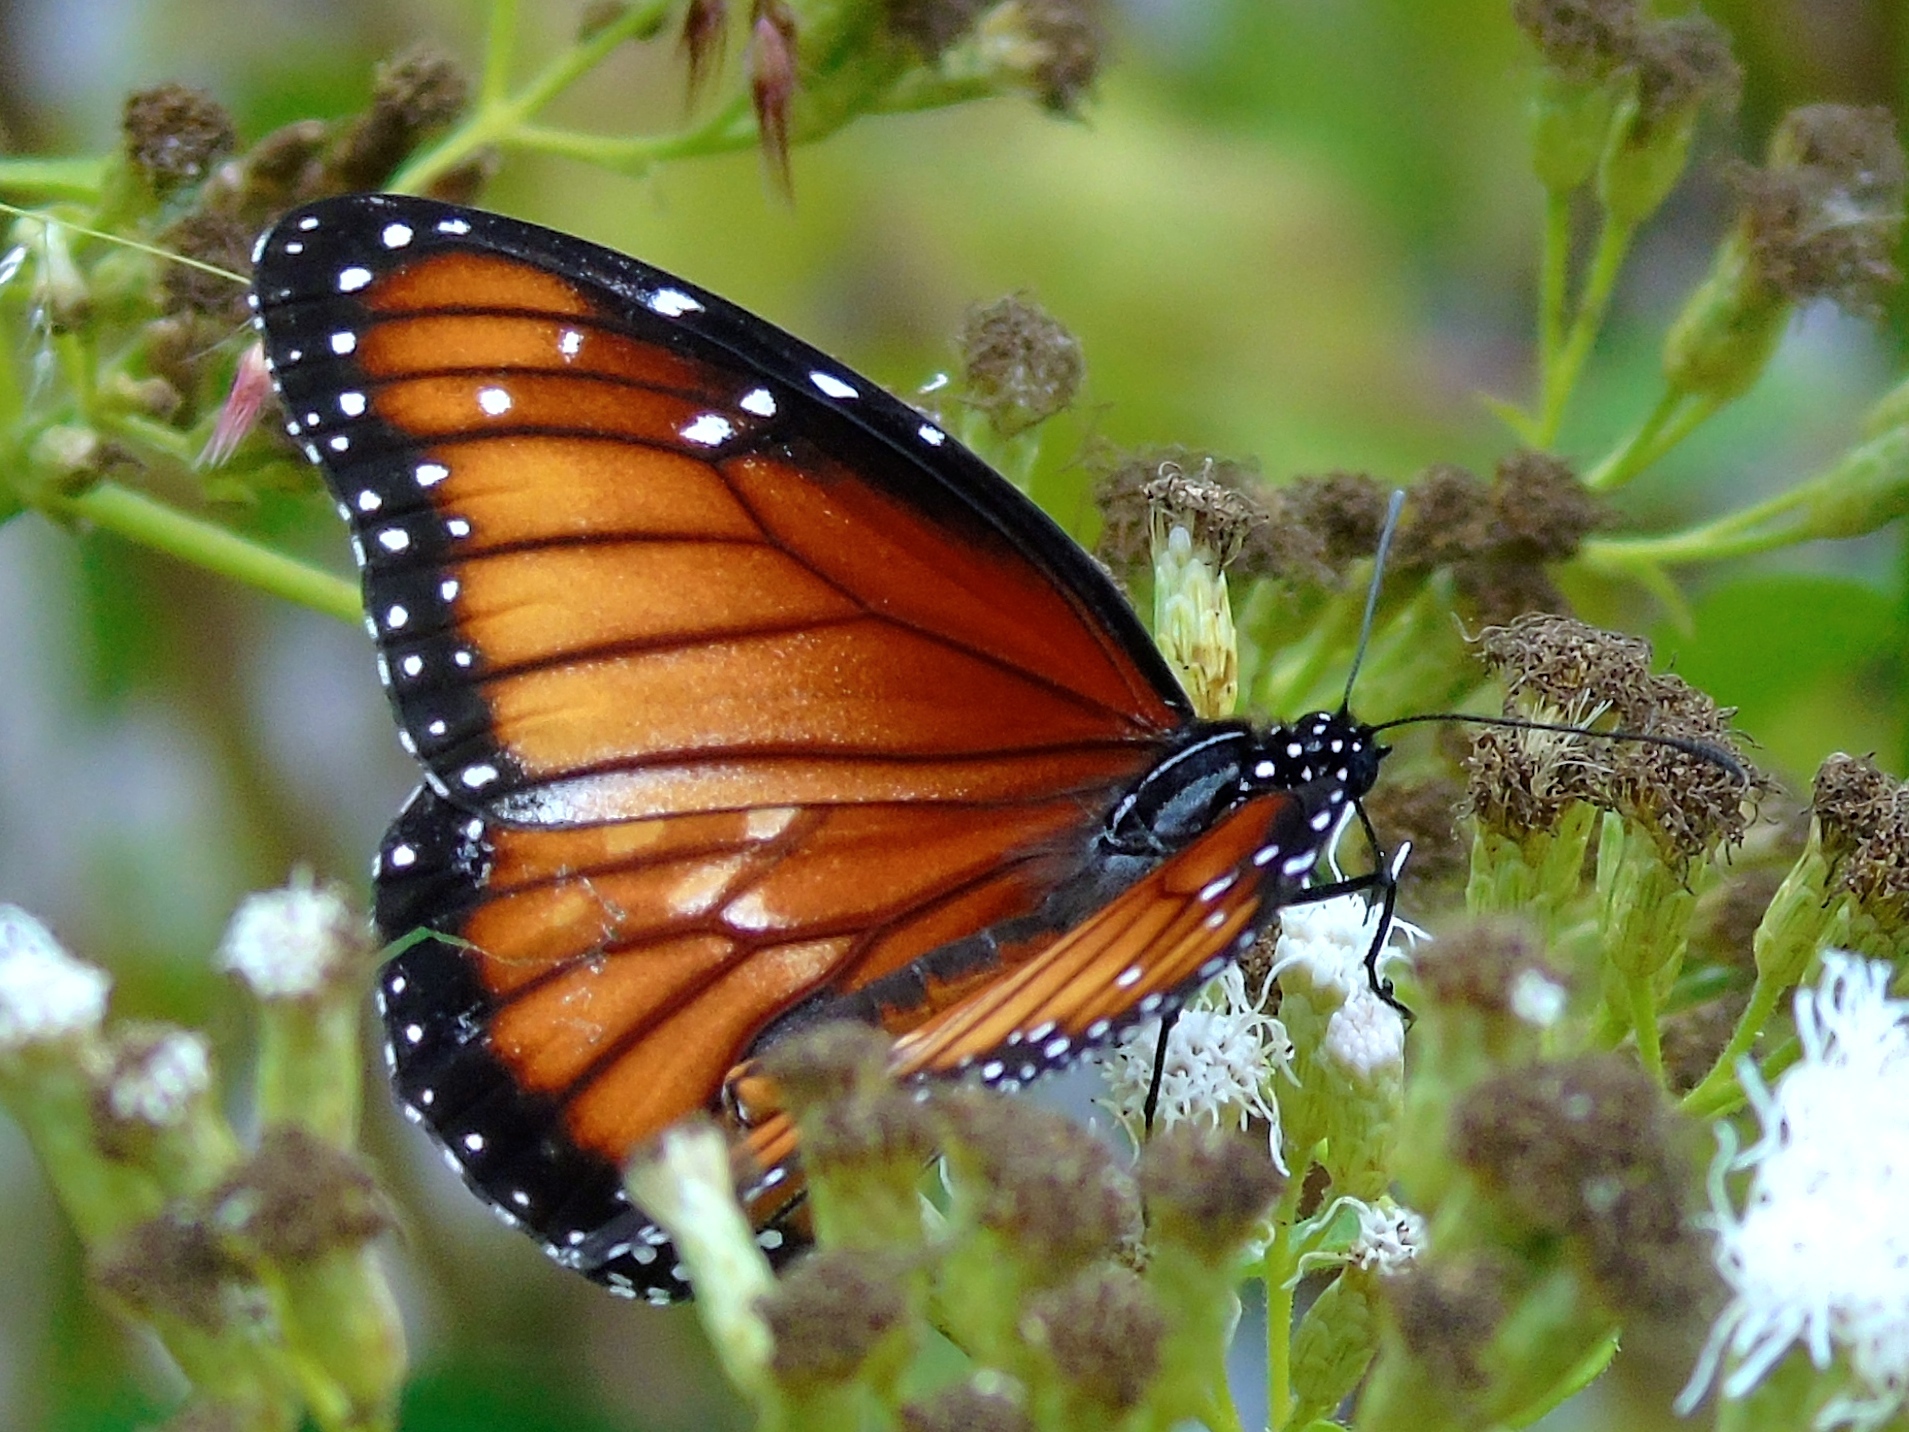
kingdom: Animalia
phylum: Arthropoda
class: Insecta
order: Lepidoptera
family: Nymphalidae
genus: Danaus
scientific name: Danaus eresimus
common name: Soldier
